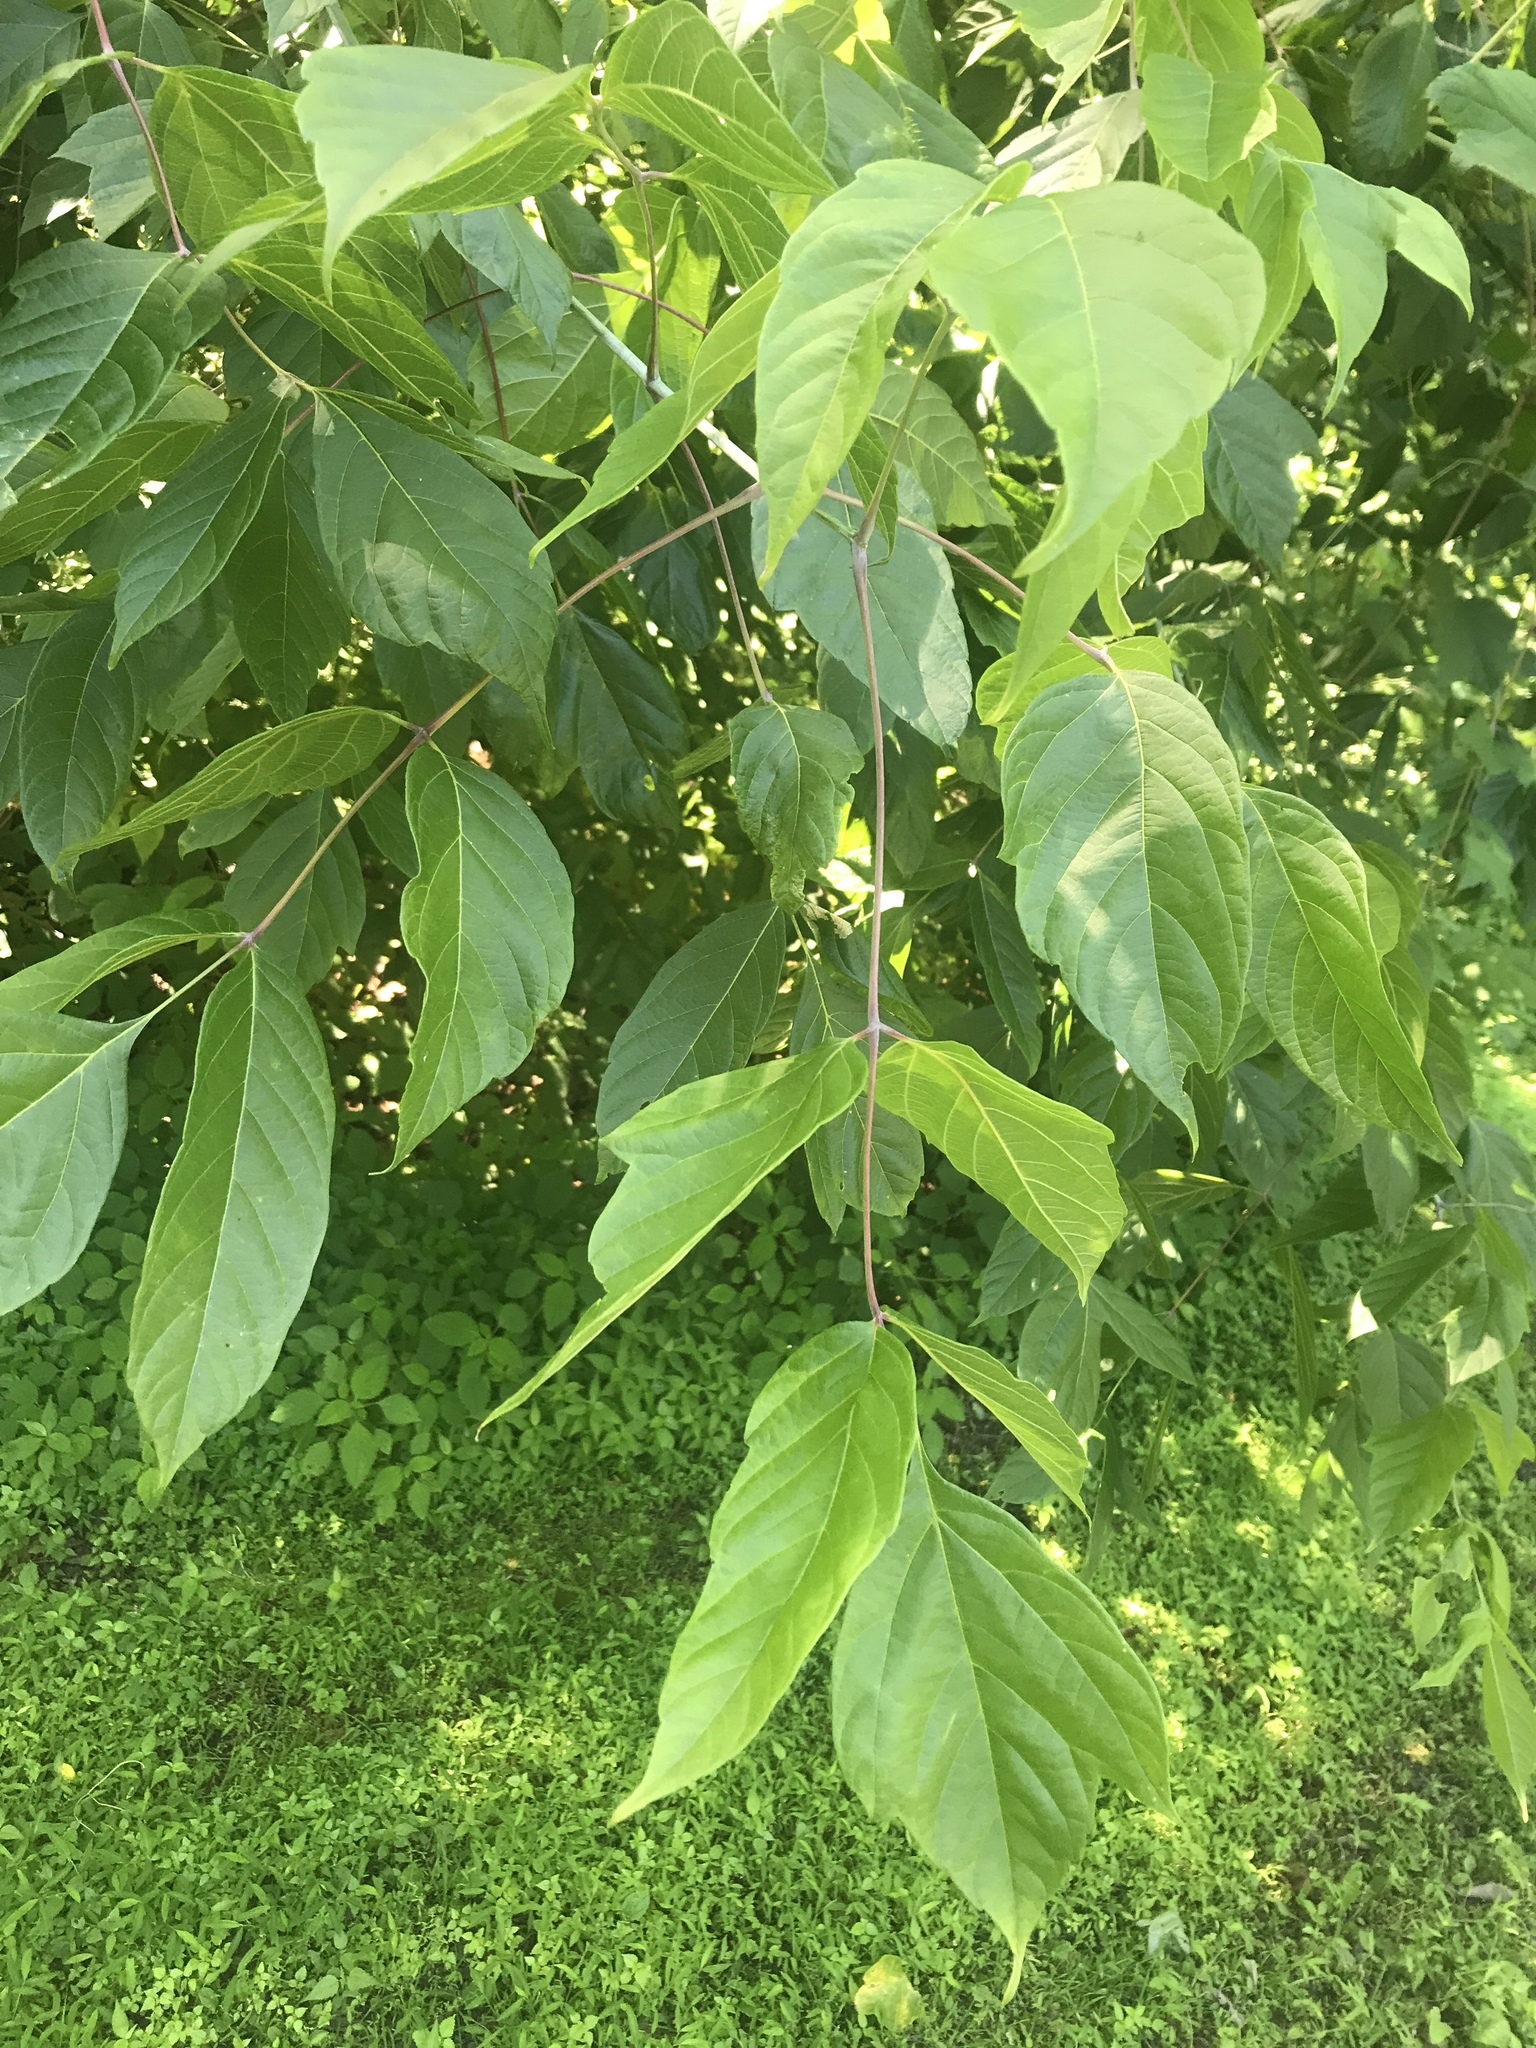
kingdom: Plantae
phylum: Tracheophyta
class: Magnoliopsida
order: Sapindales
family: Sapindaceae
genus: Acer
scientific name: Acer negundo
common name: Ashleaf maple
